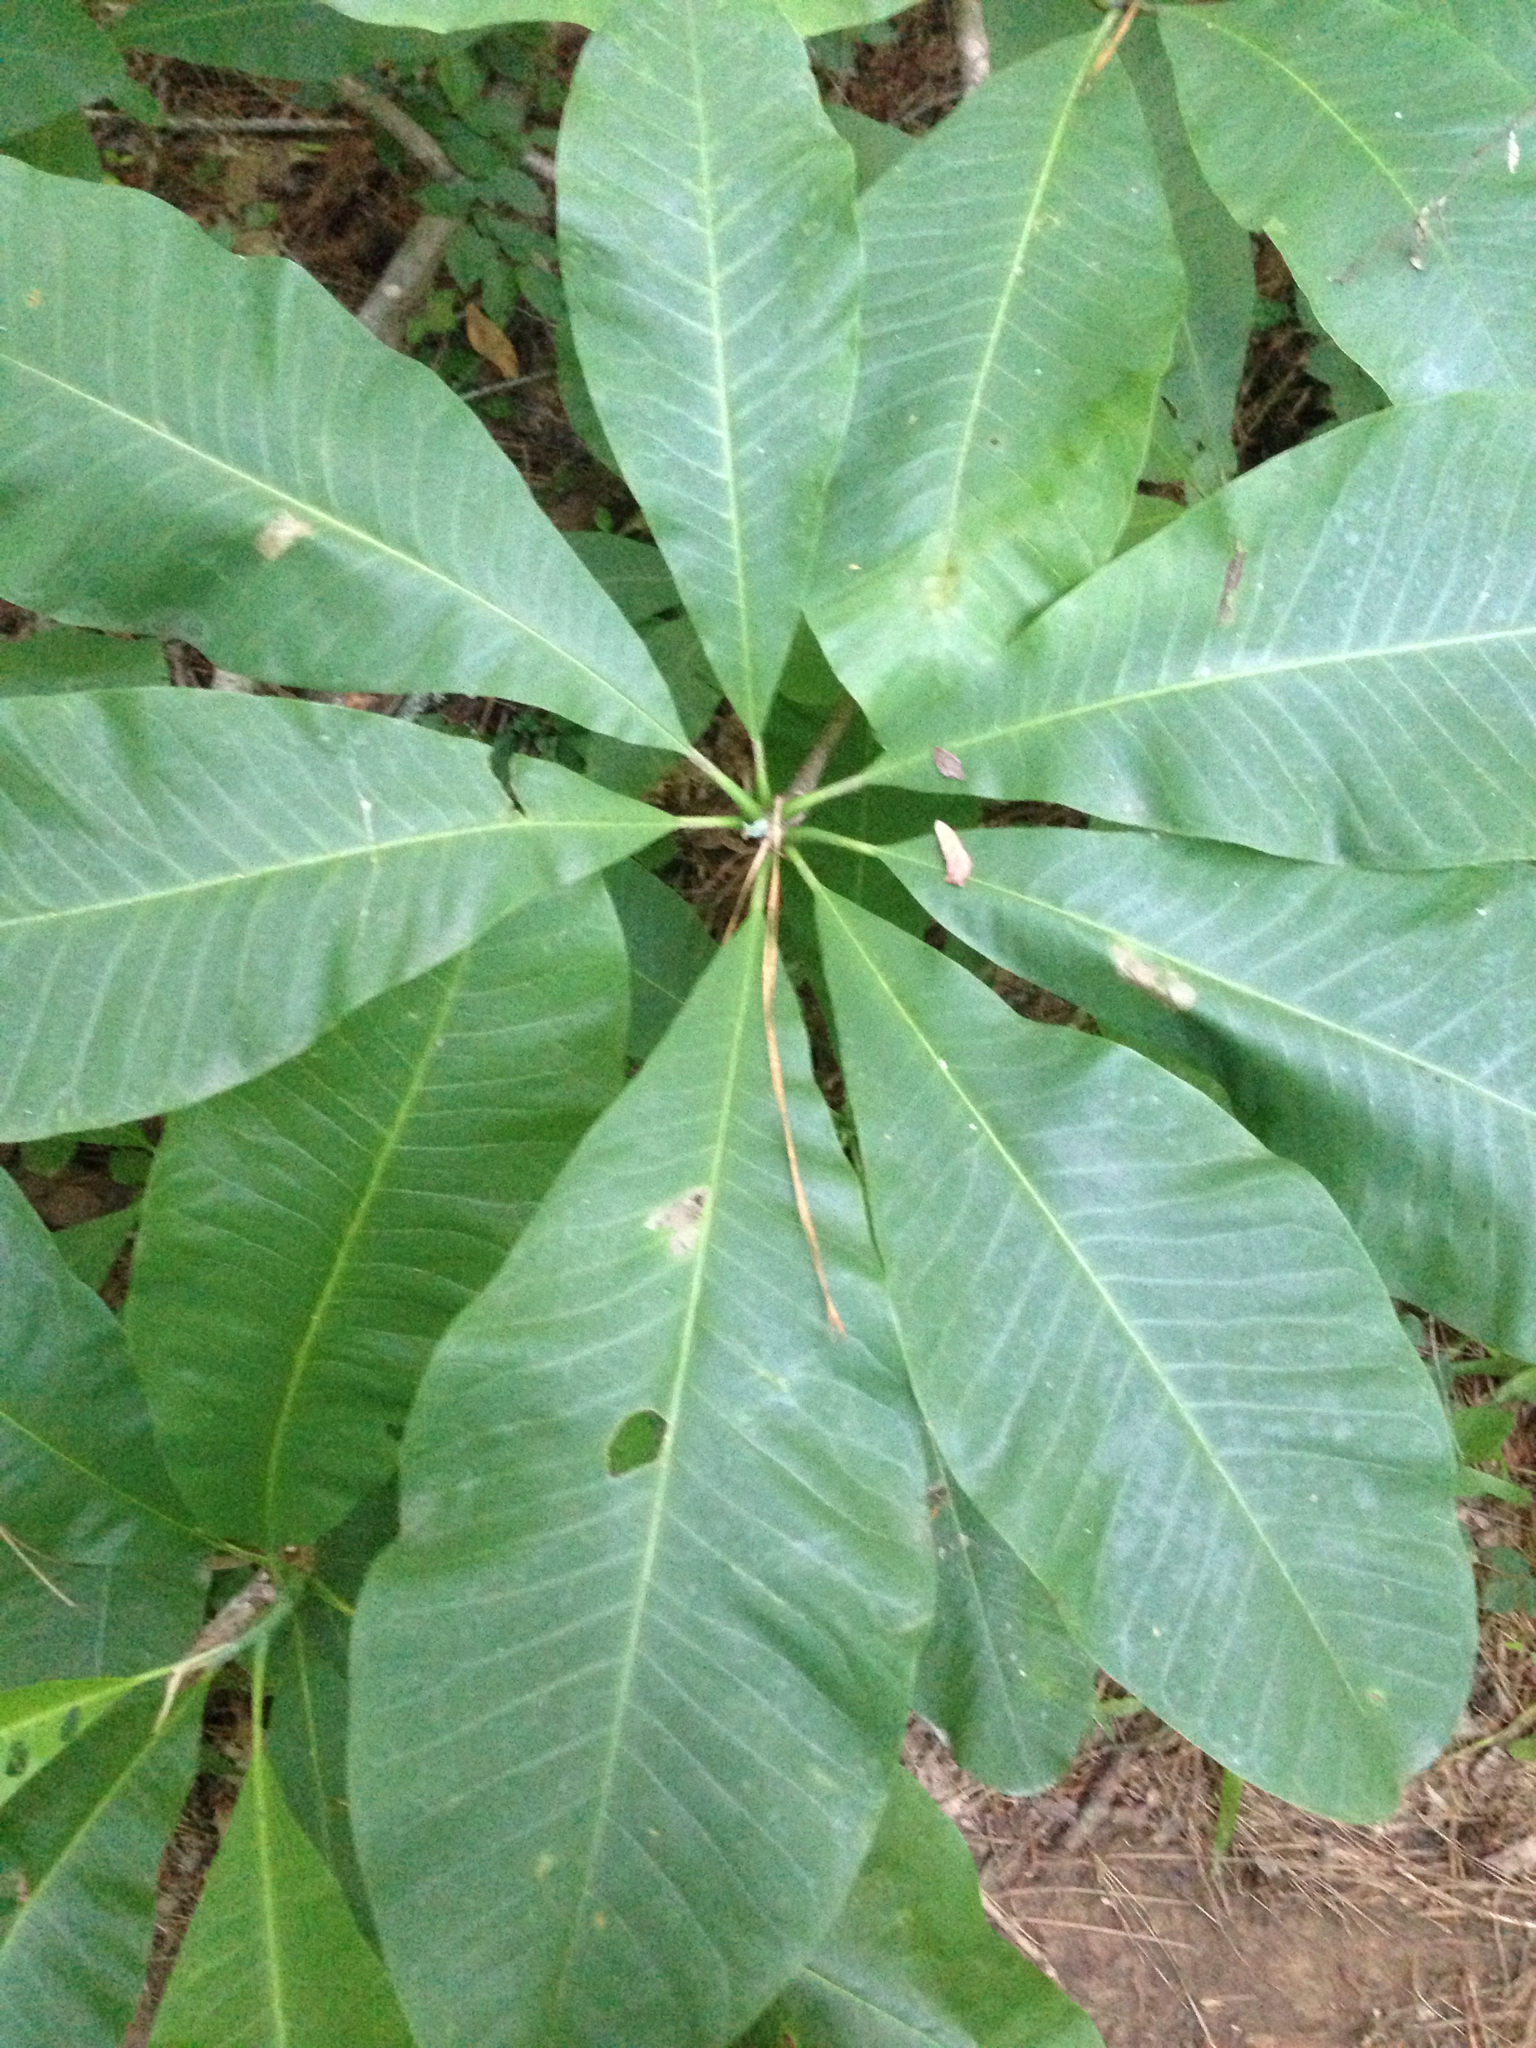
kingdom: Plantae
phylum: Tracheophyta
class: Magnoliopsida
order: Magnoliales
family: Magnoliaceae
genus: Magnolia
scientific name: Magnolia tripetala
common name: Umbrella magnolia
